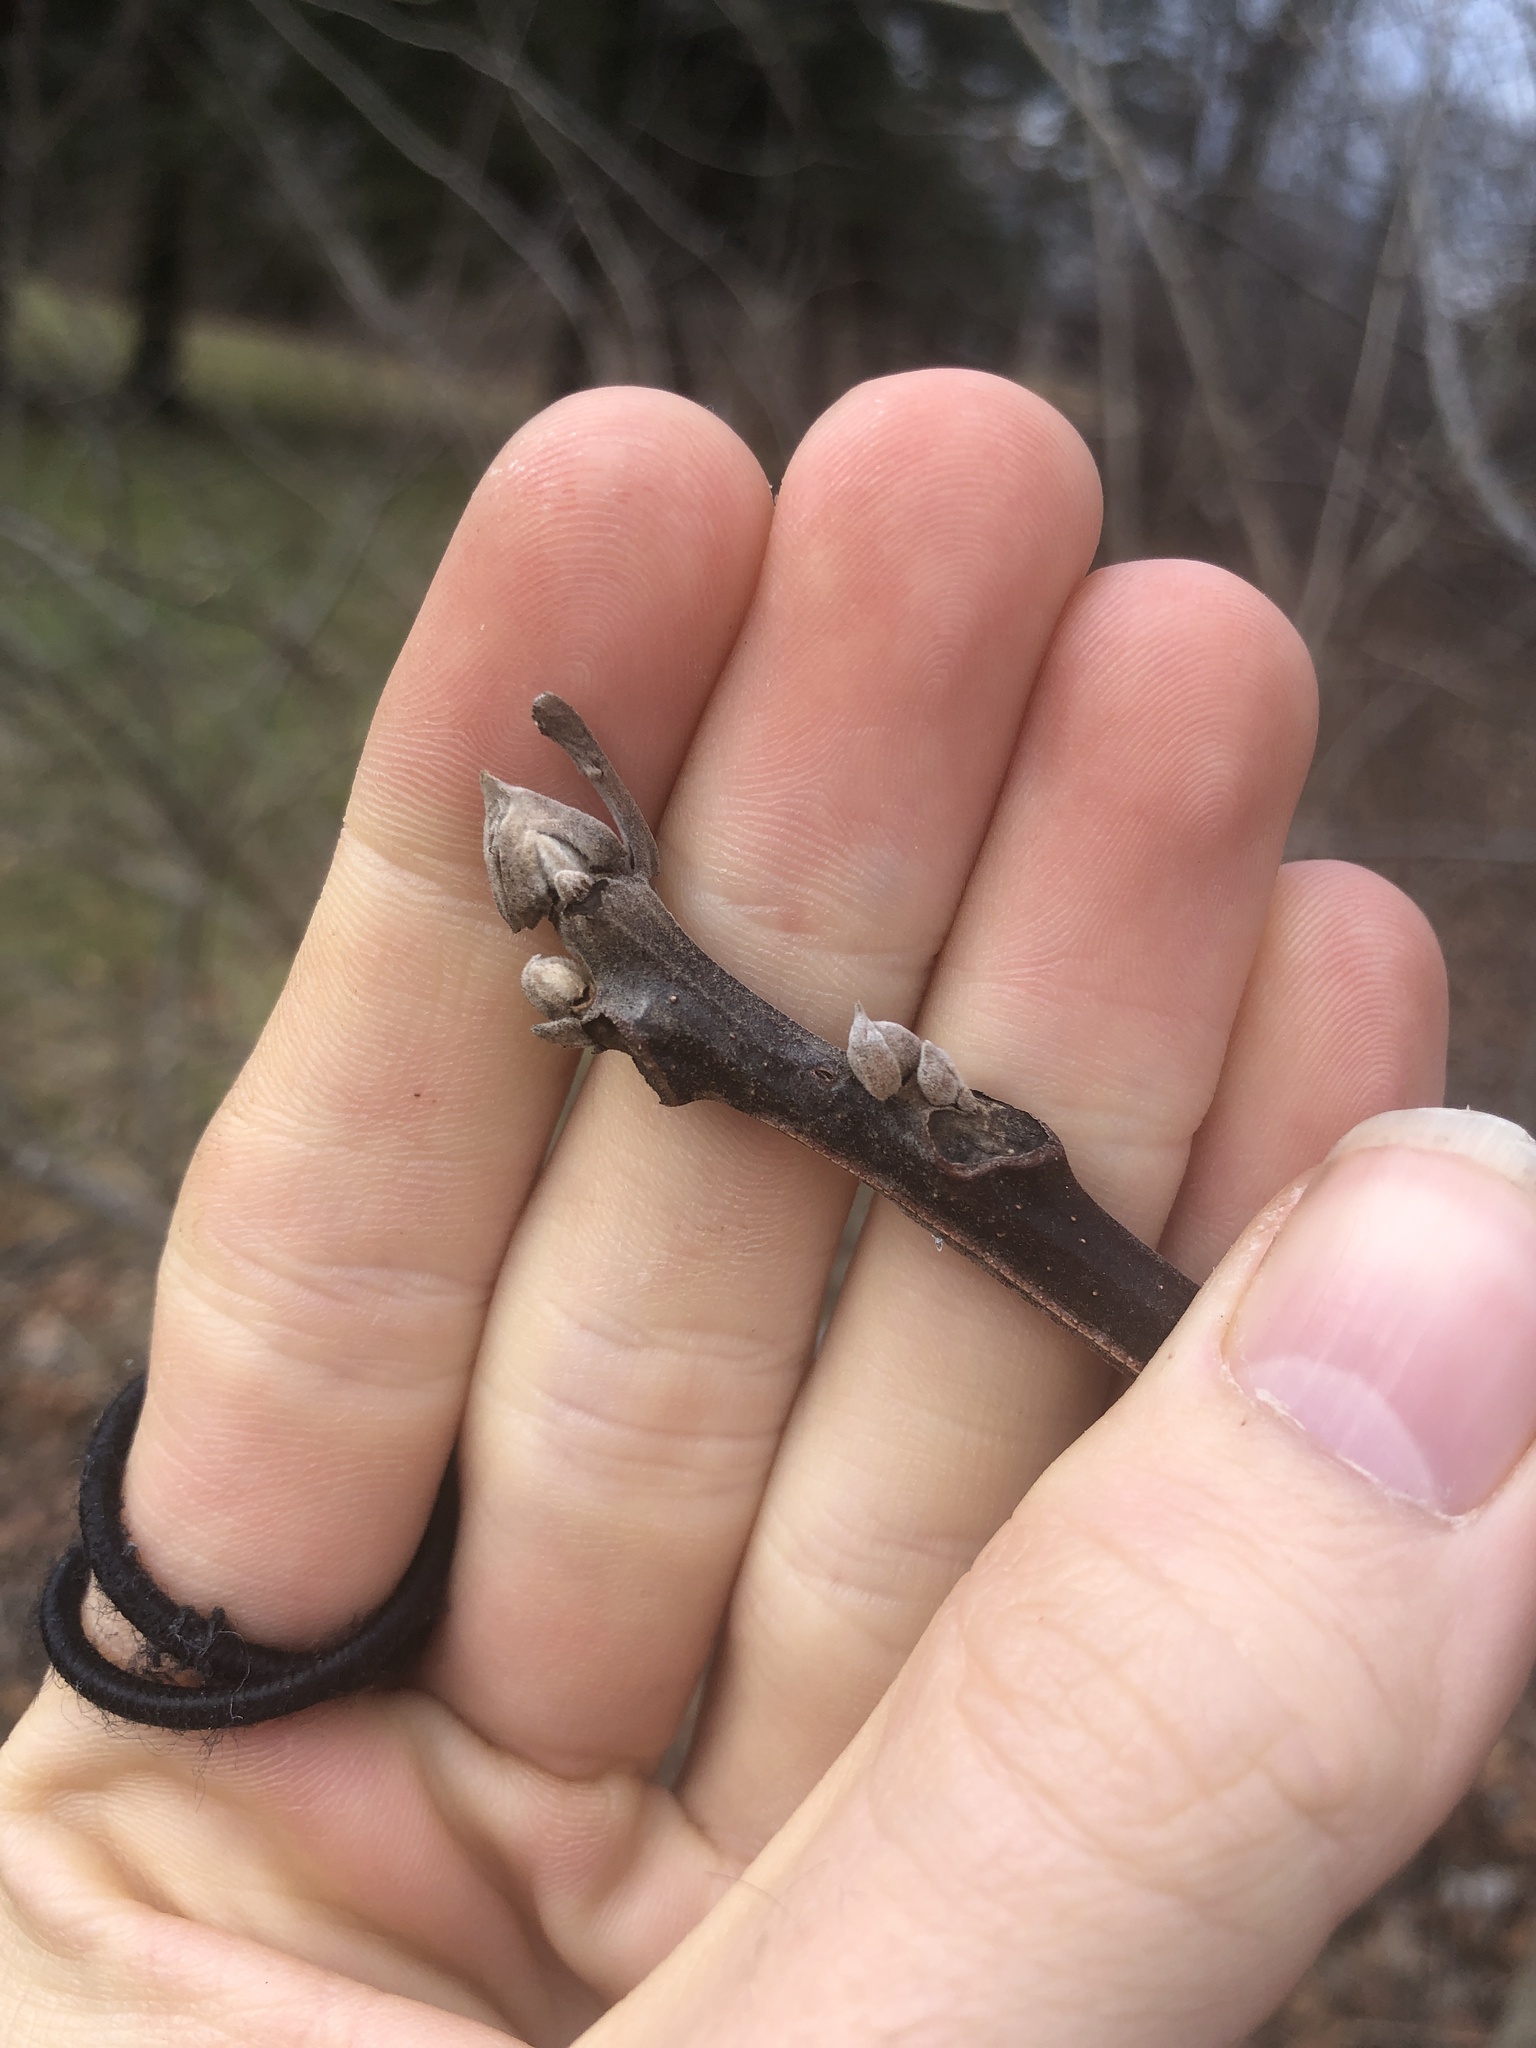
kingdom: Plantae
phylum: Tracheophyta
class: Magnoliopsida
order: Fagales
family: Juglandaceae
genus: Juglans
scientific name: Juglans nigra
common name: Black walnut
